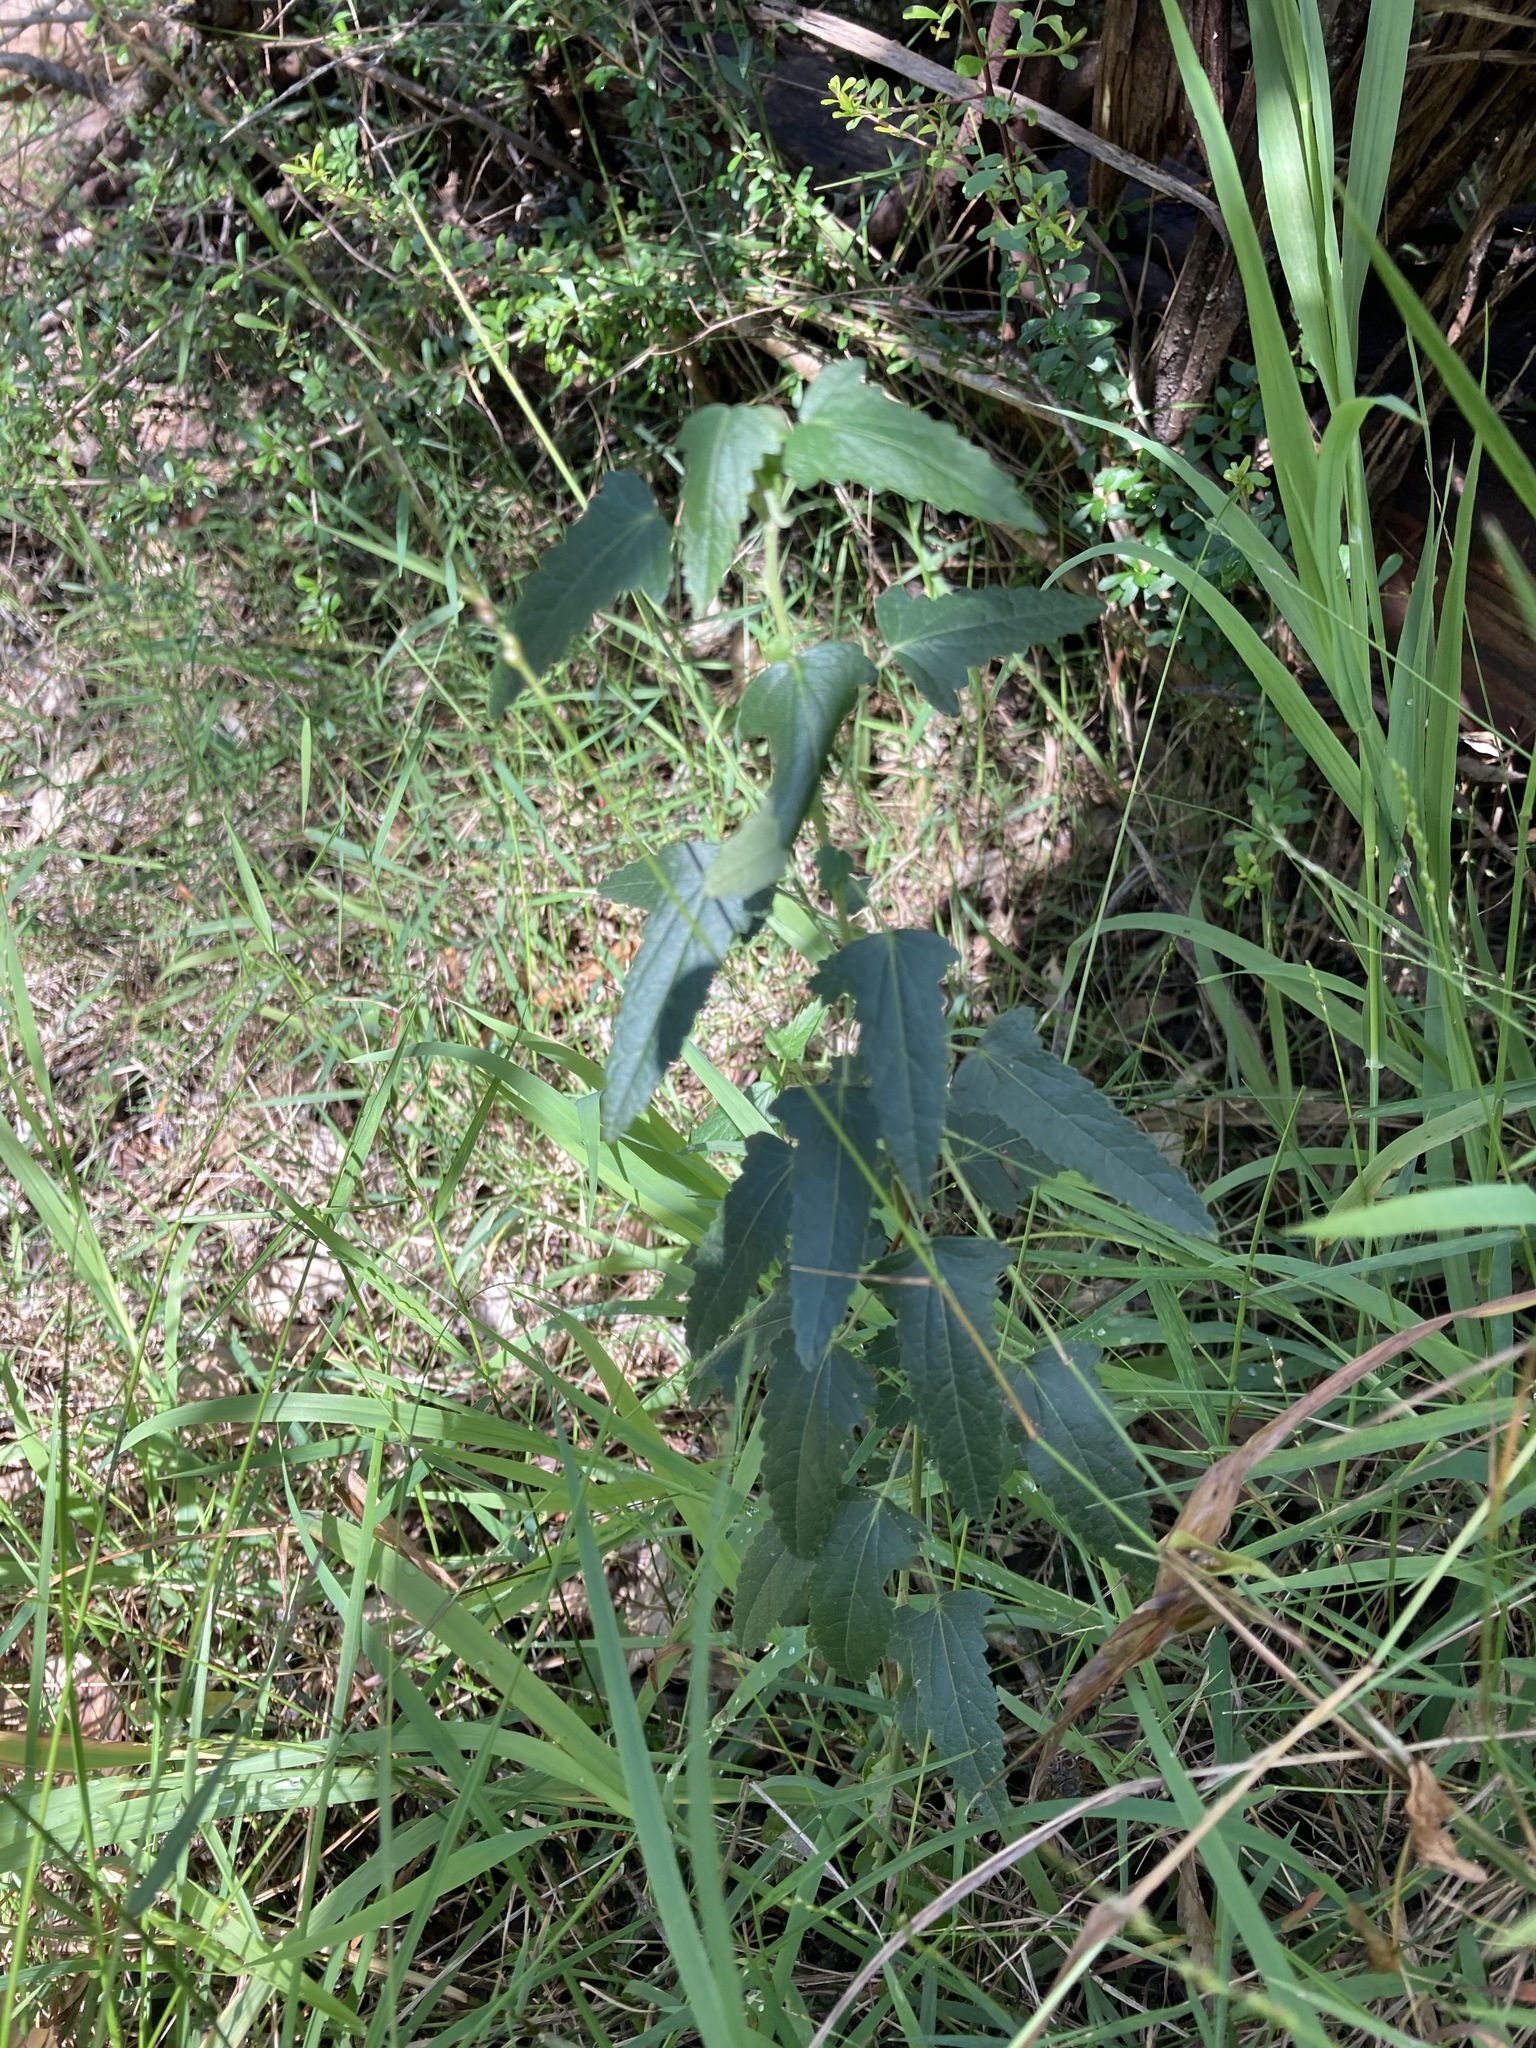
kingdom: Plantae
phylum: Tracheophyta
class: Magnoliopsida
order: Malvales
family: Malvaceae
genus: Pavonia
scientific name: Pavonia hastata
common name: Spearleaf swampmallow
